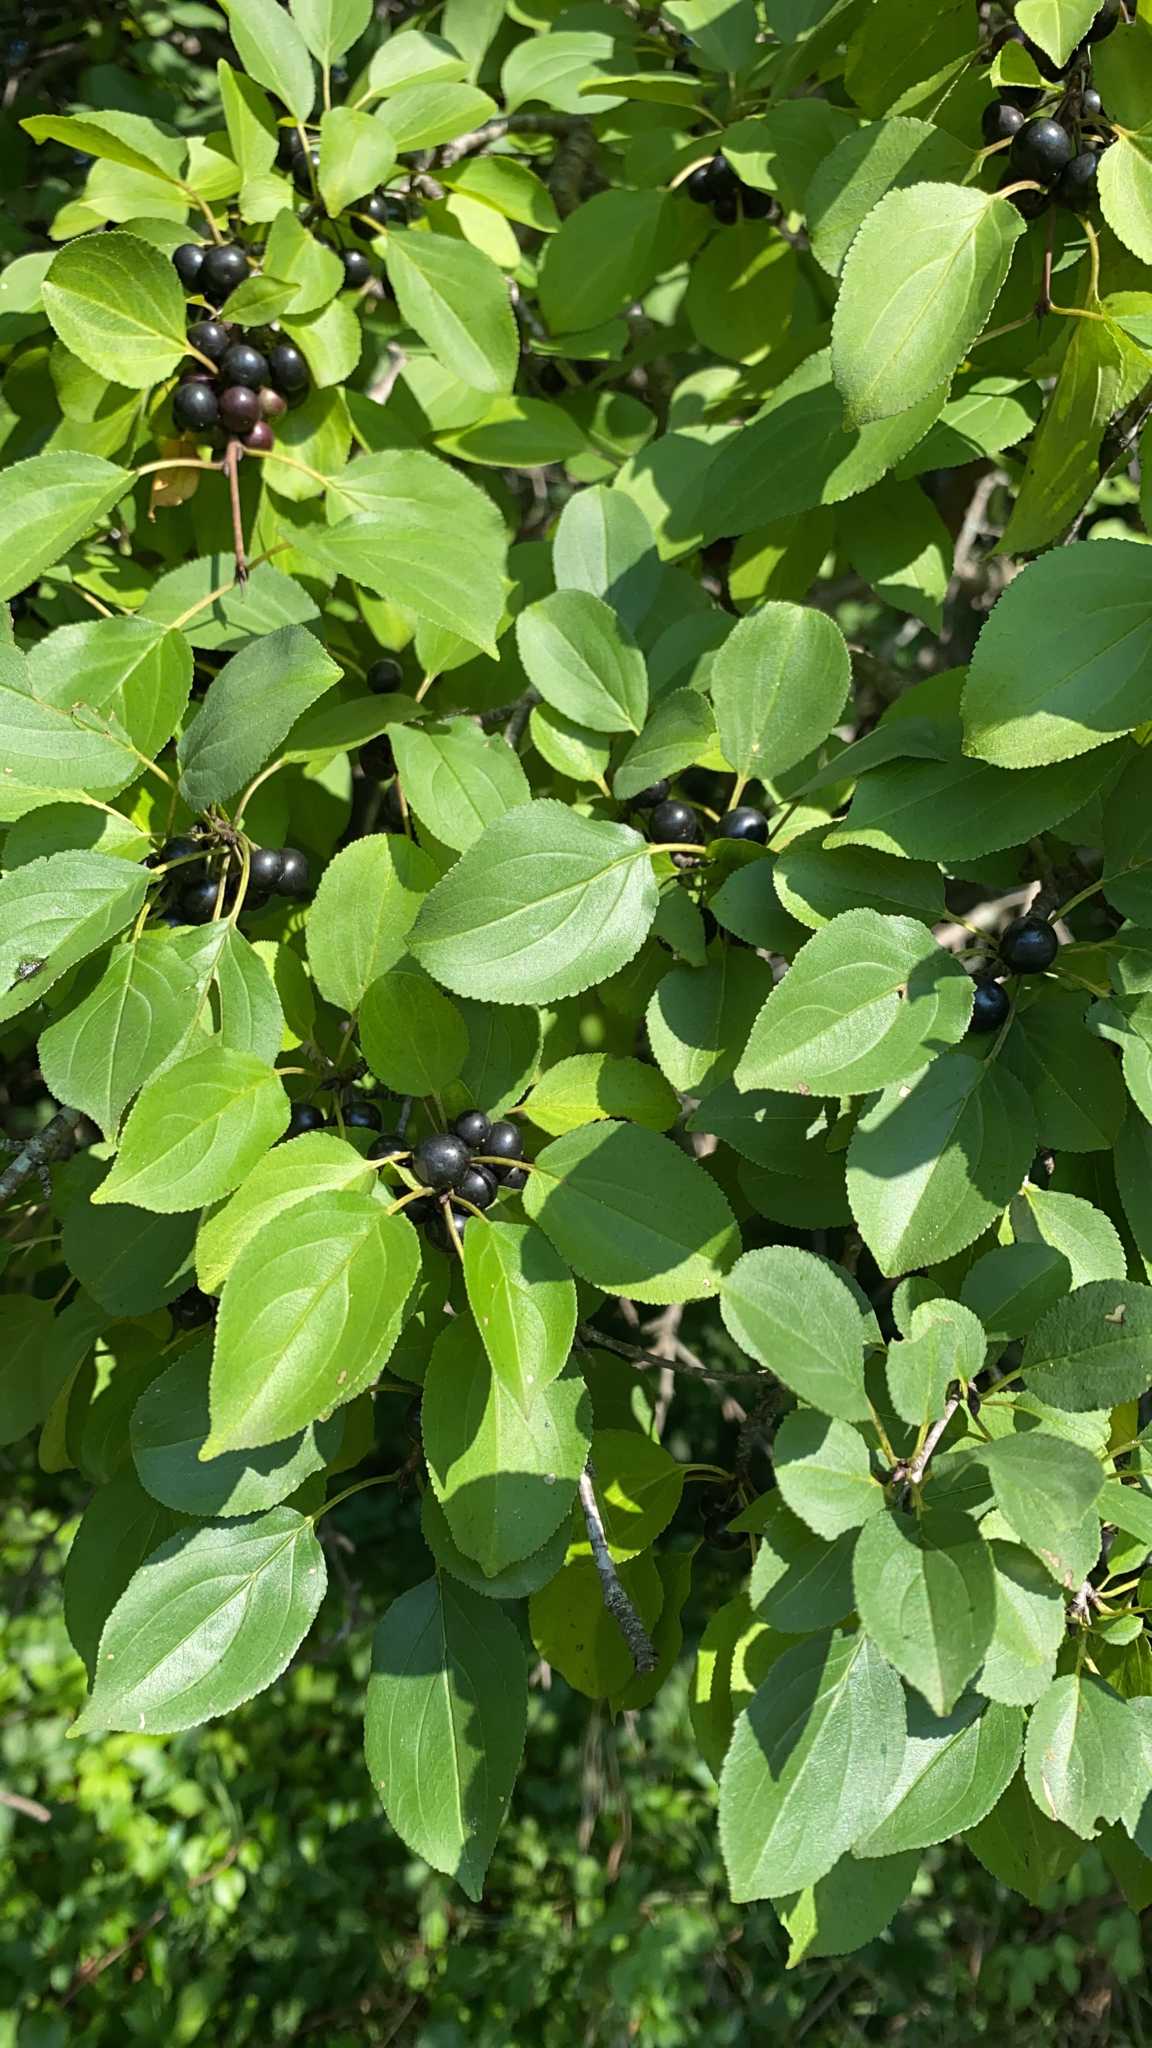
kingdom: Plantae
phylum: Tracheophyta
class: Magnoliopsida
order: Rosales
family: Rhamnaceae
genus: Rhamnus
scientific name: Rhamnus cathartica
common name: Common buckthorn
